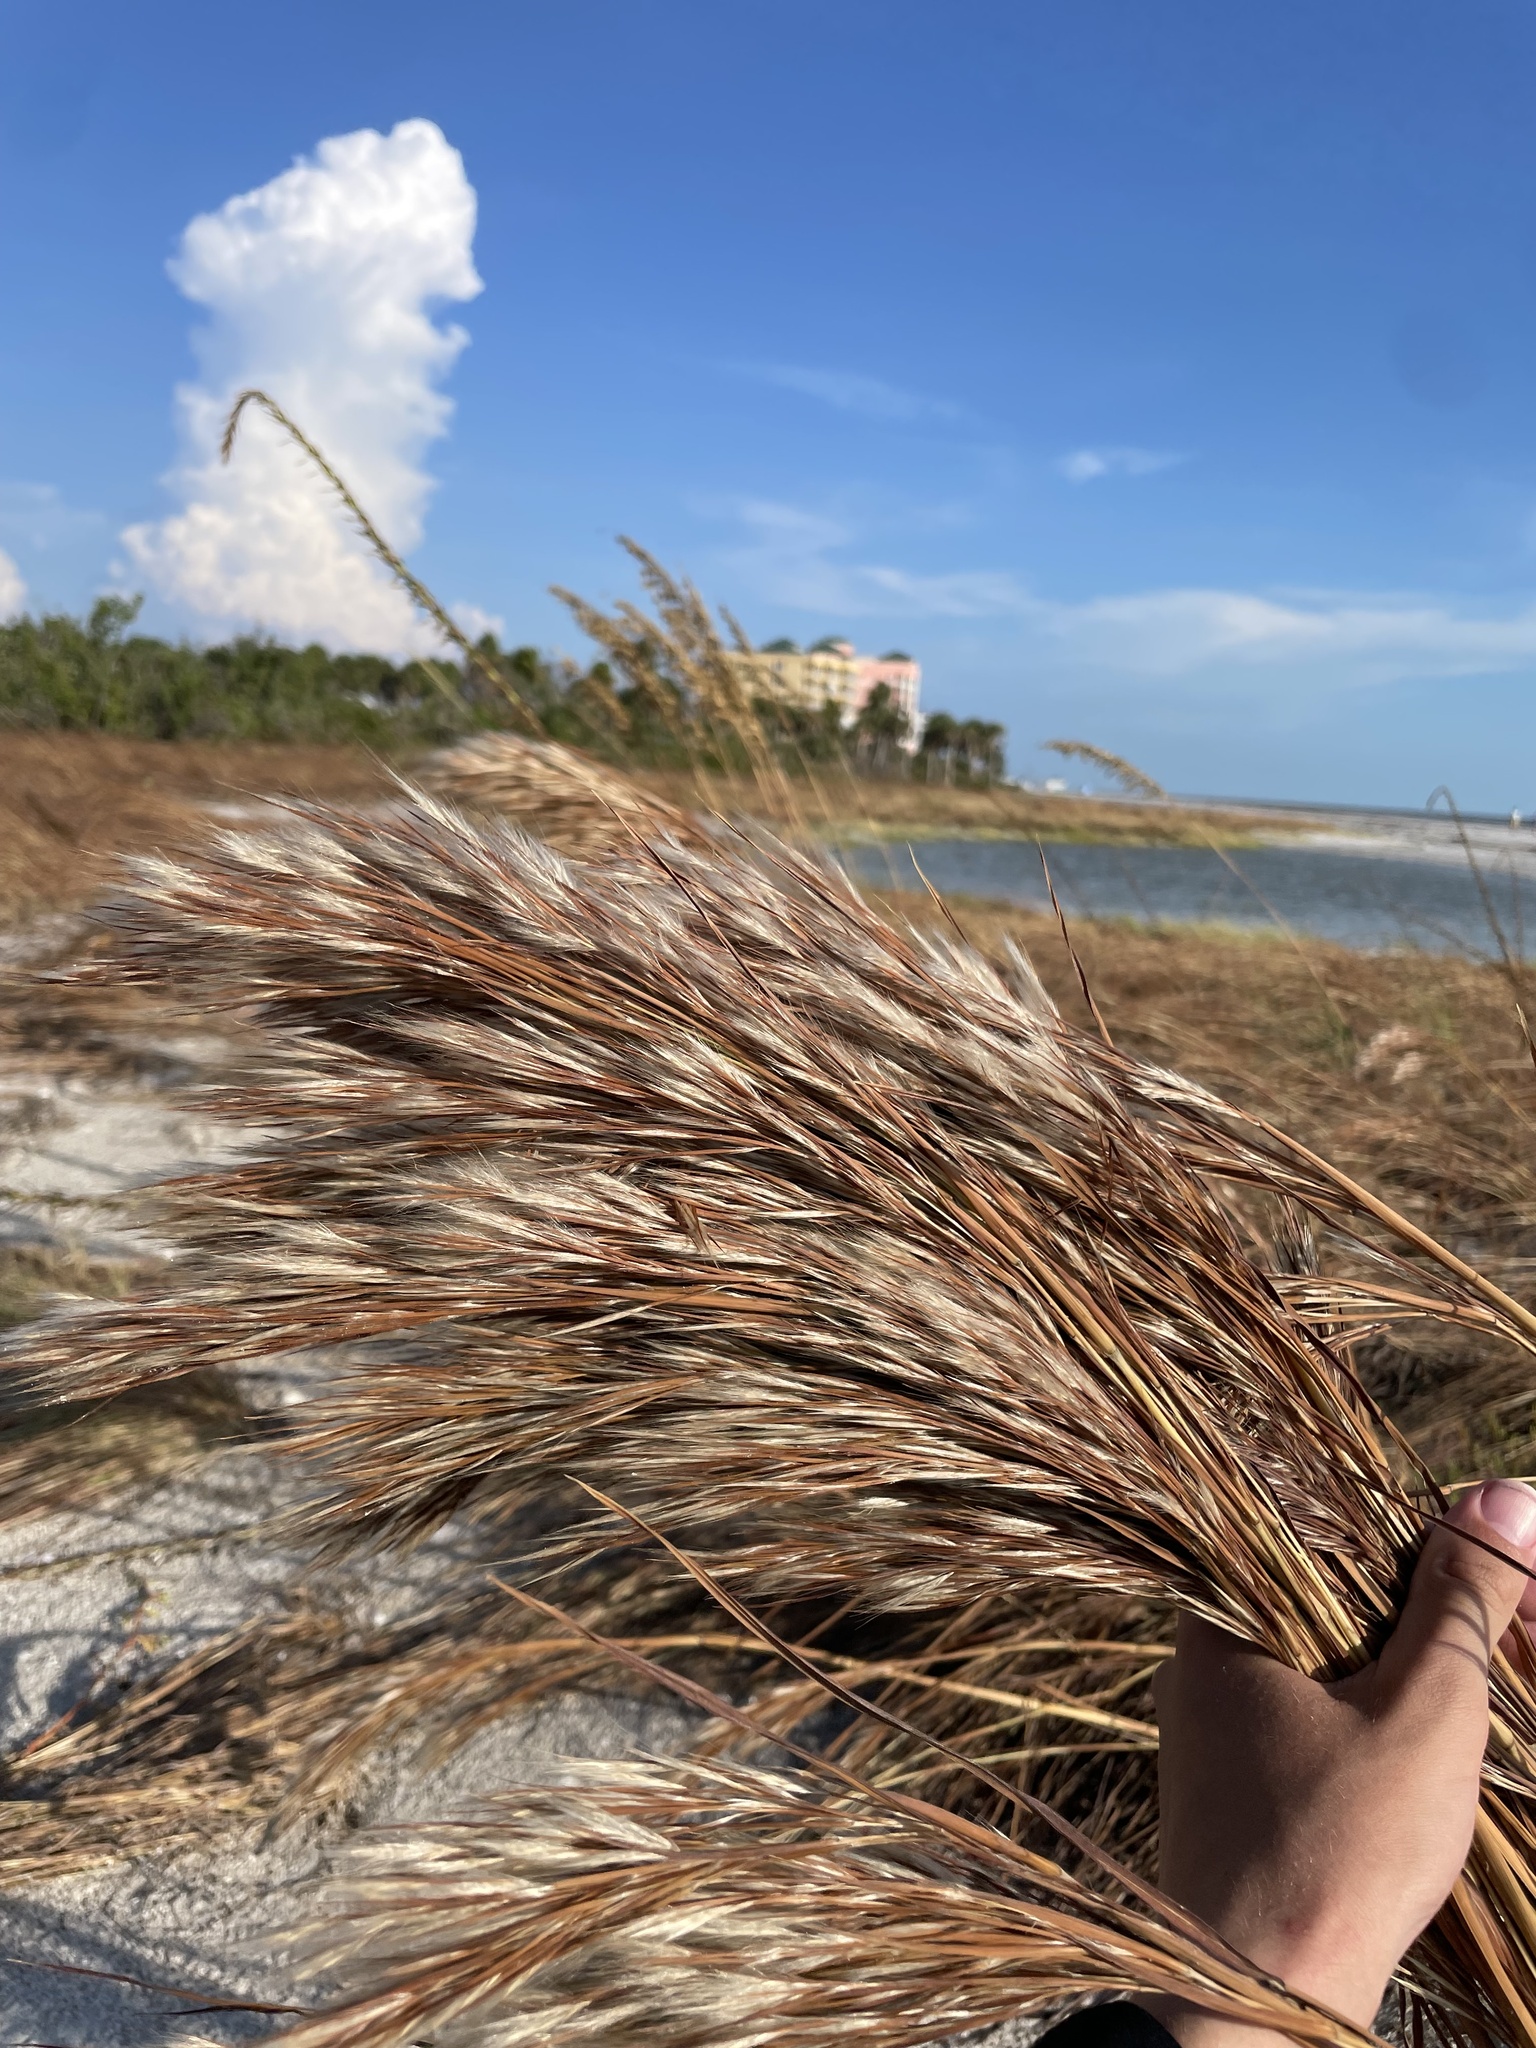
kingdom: Plantae
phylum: Tracheophyta
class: Liliopsida
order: Poales
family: Poaceae
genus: Andropogon
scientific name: Andropogon tenuispatheus
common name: Bushy bluestem
